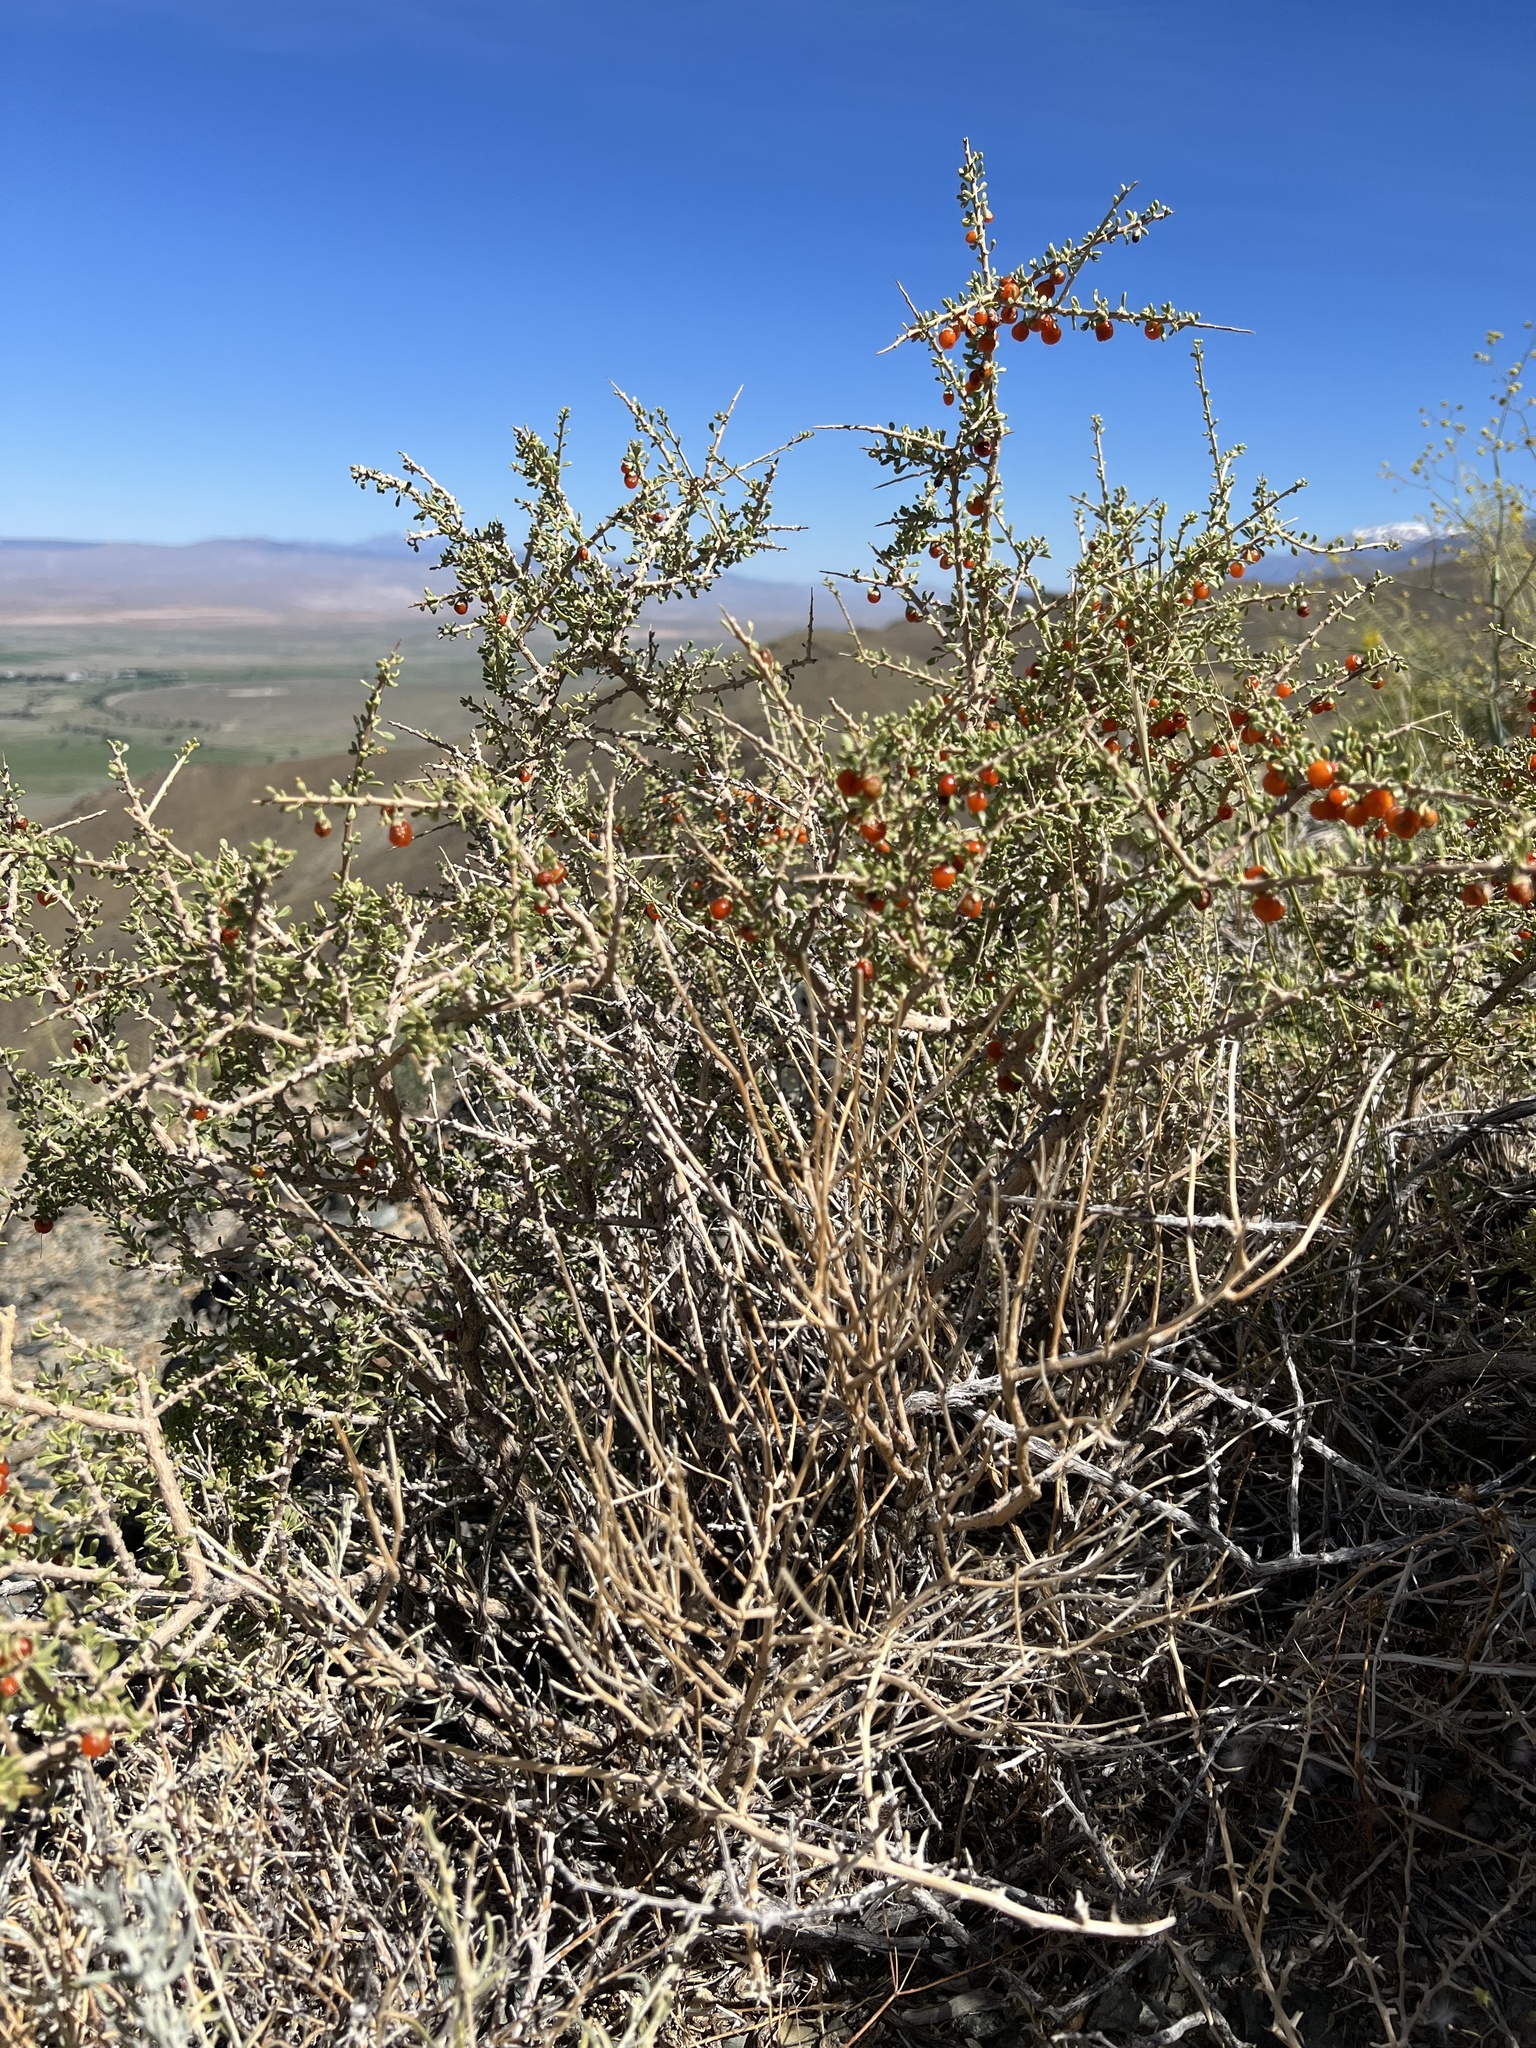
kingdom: Plantae
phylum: Tracheophyta
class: Magnoliopsida
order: Solanales
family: Solanaceae
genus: Lycium
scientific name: Lycium andersonii
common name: Water-jacket
